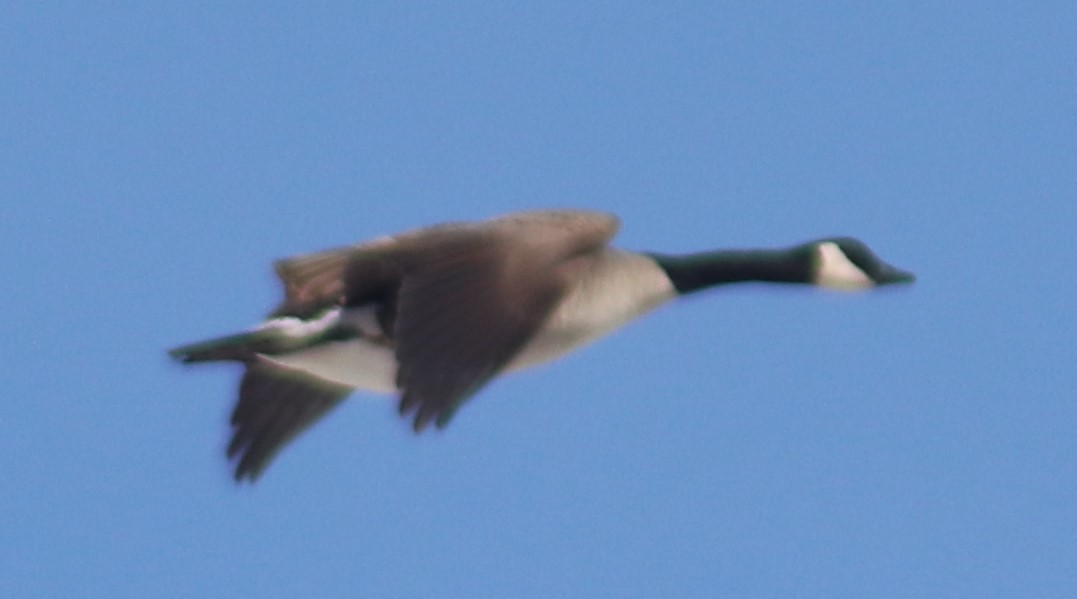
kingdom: Animalia
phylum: Chordata
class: Aves
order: Anseriformes
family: Anatidae
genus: Branta
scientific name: Branta canadensis
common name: Canada goose
